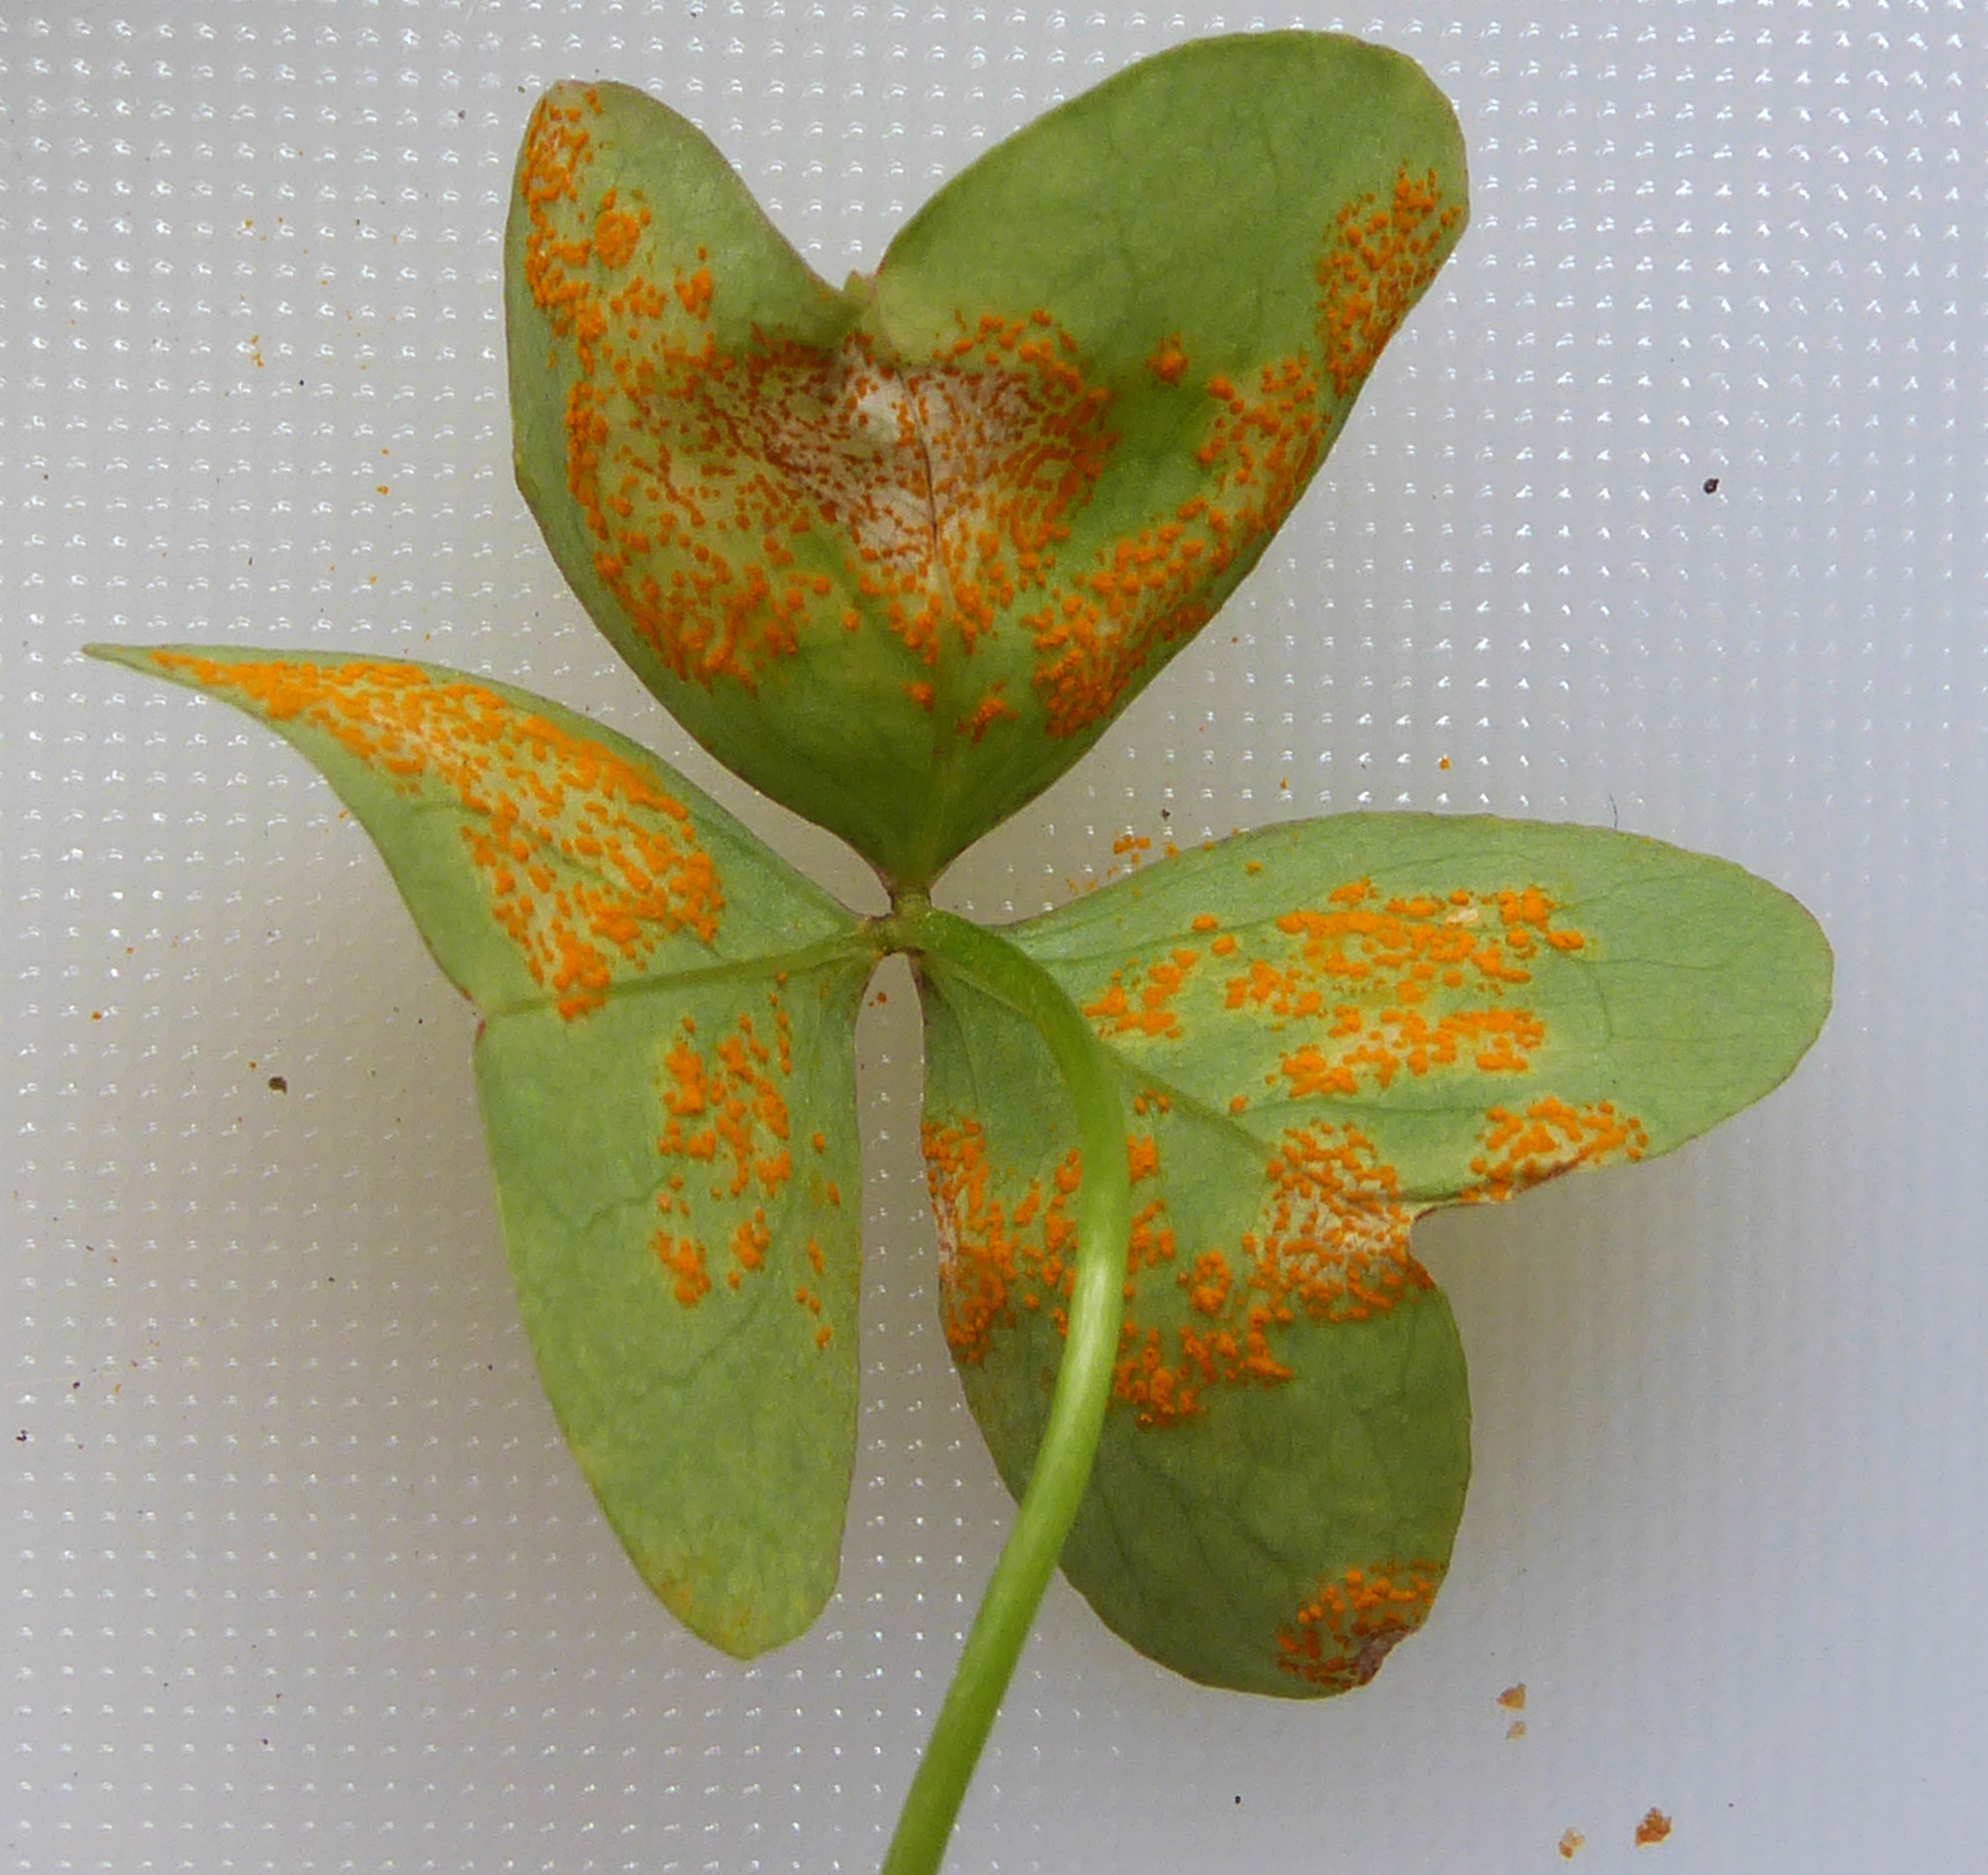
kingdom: Fungi
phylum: Basidiomycota
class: Pucciniomycetes
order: Pucciniales
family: Pucciniaceae
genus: Puccinia
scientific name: Puccinia oxalidis
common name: Oxalis rust
